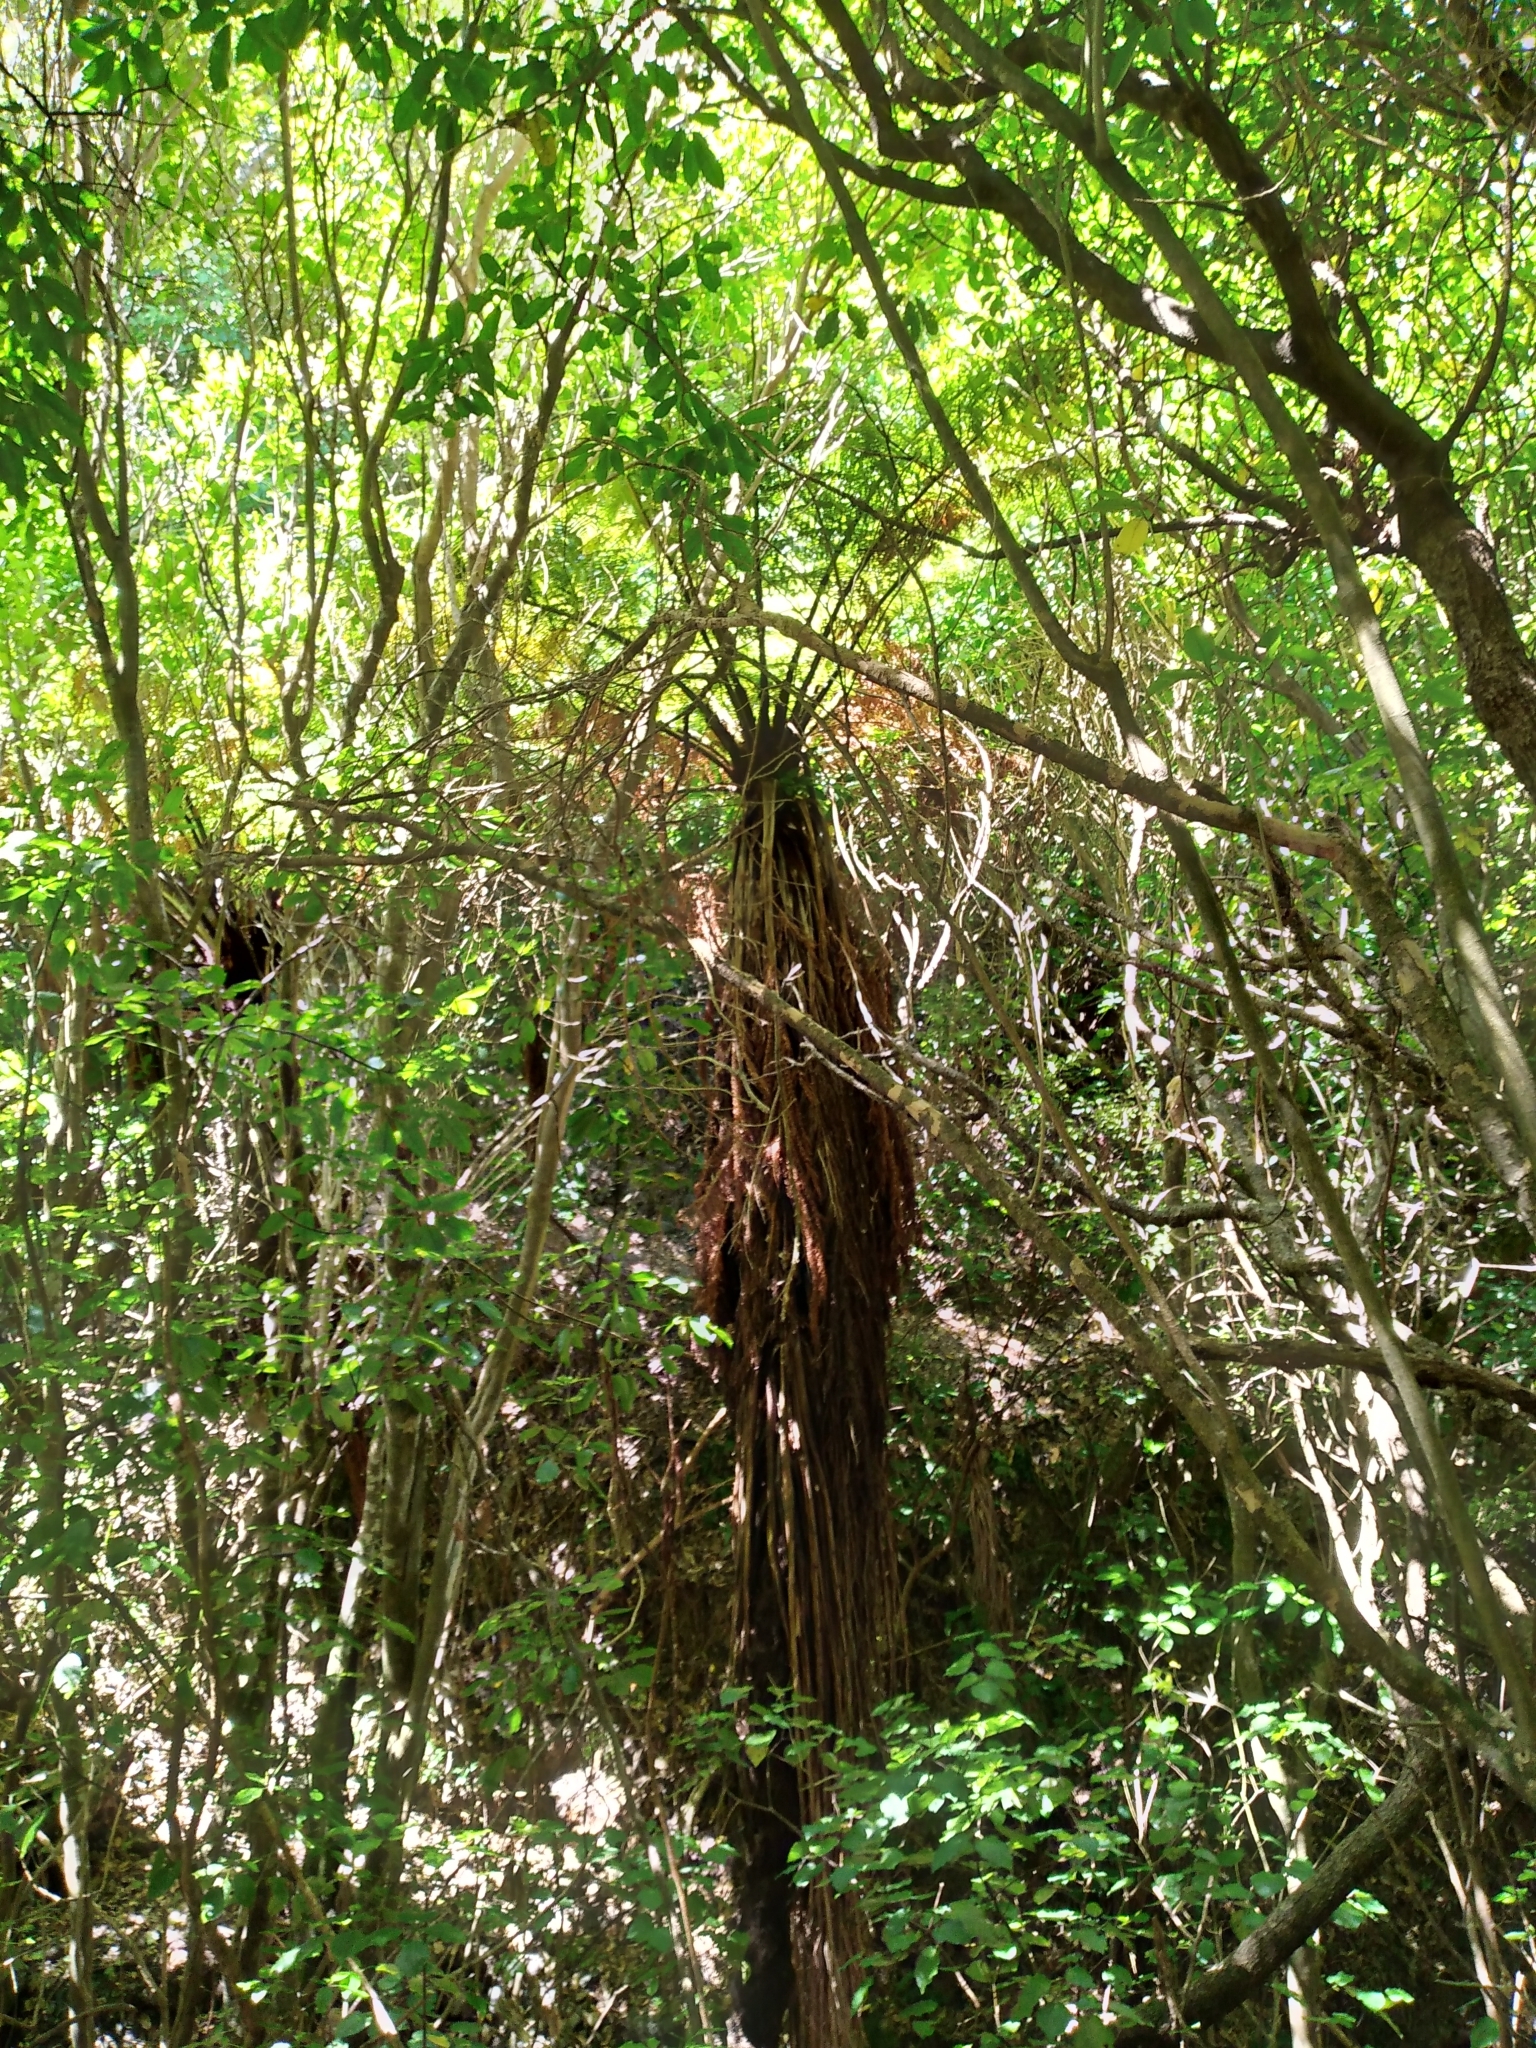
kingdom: Plantae
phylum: Tracheophyta
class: Polypodiopsida
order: Cyatheales
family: Cyatheaceae
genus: Sphaeropteris
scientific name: Sphaeropteris medullaris
